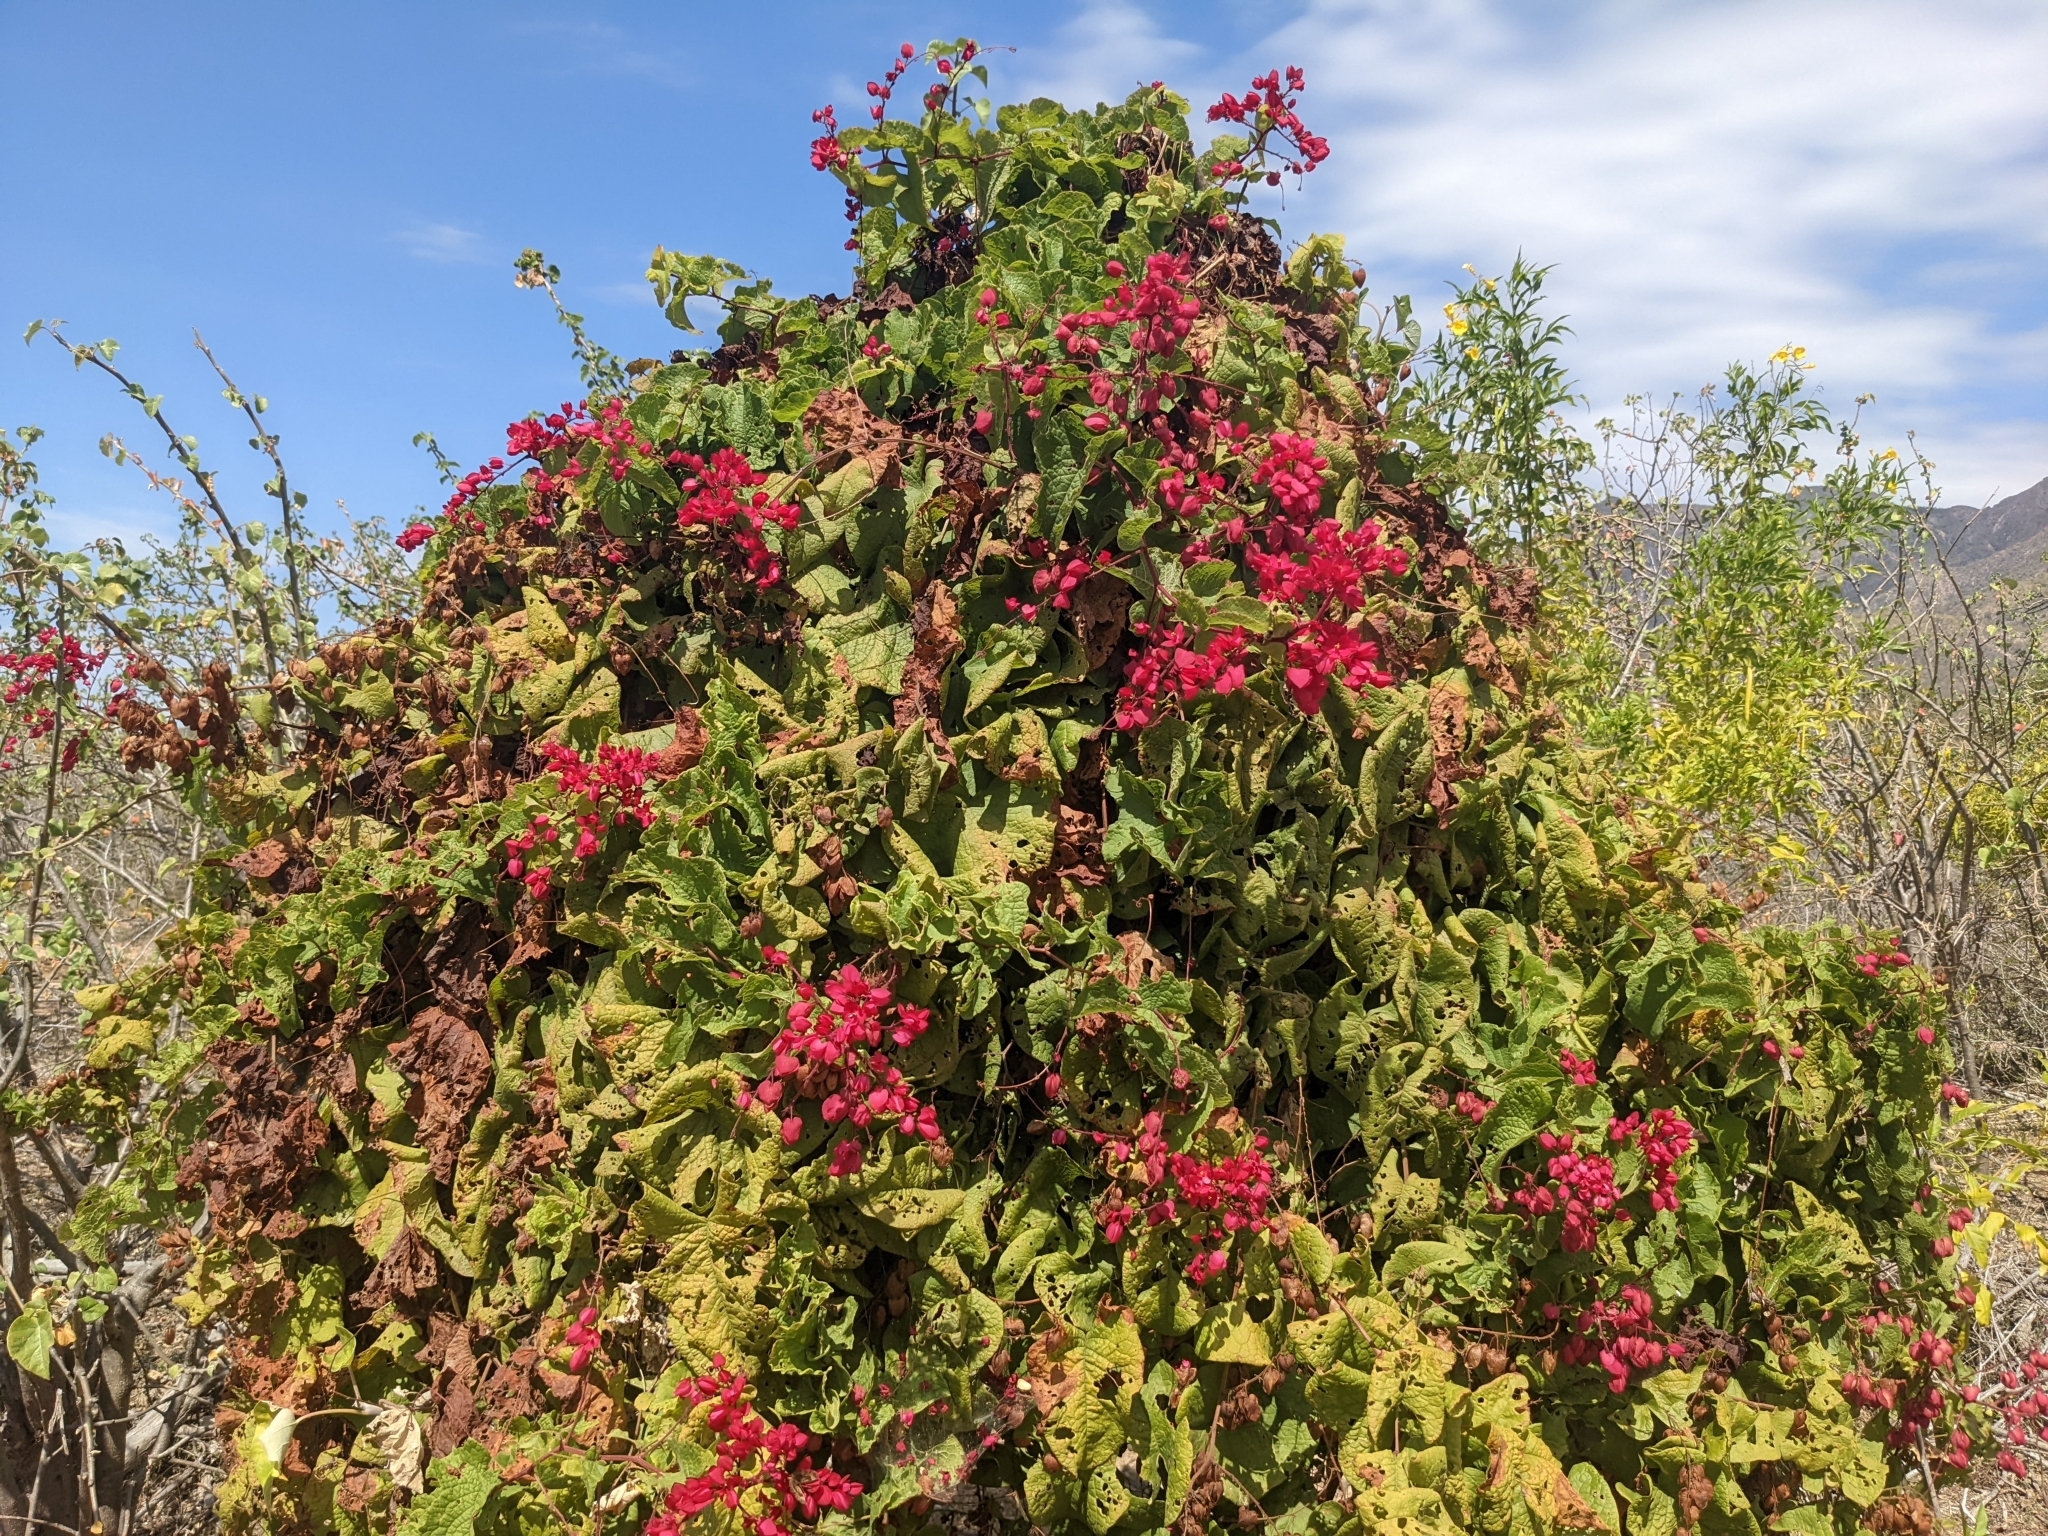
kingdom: Plantae
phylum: Tracheophyta
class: Magnoliopsida
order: Caryophyllales
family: Polygonaceae
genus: Antigonon
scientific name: Antigonon leptopus
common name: Coral vine
